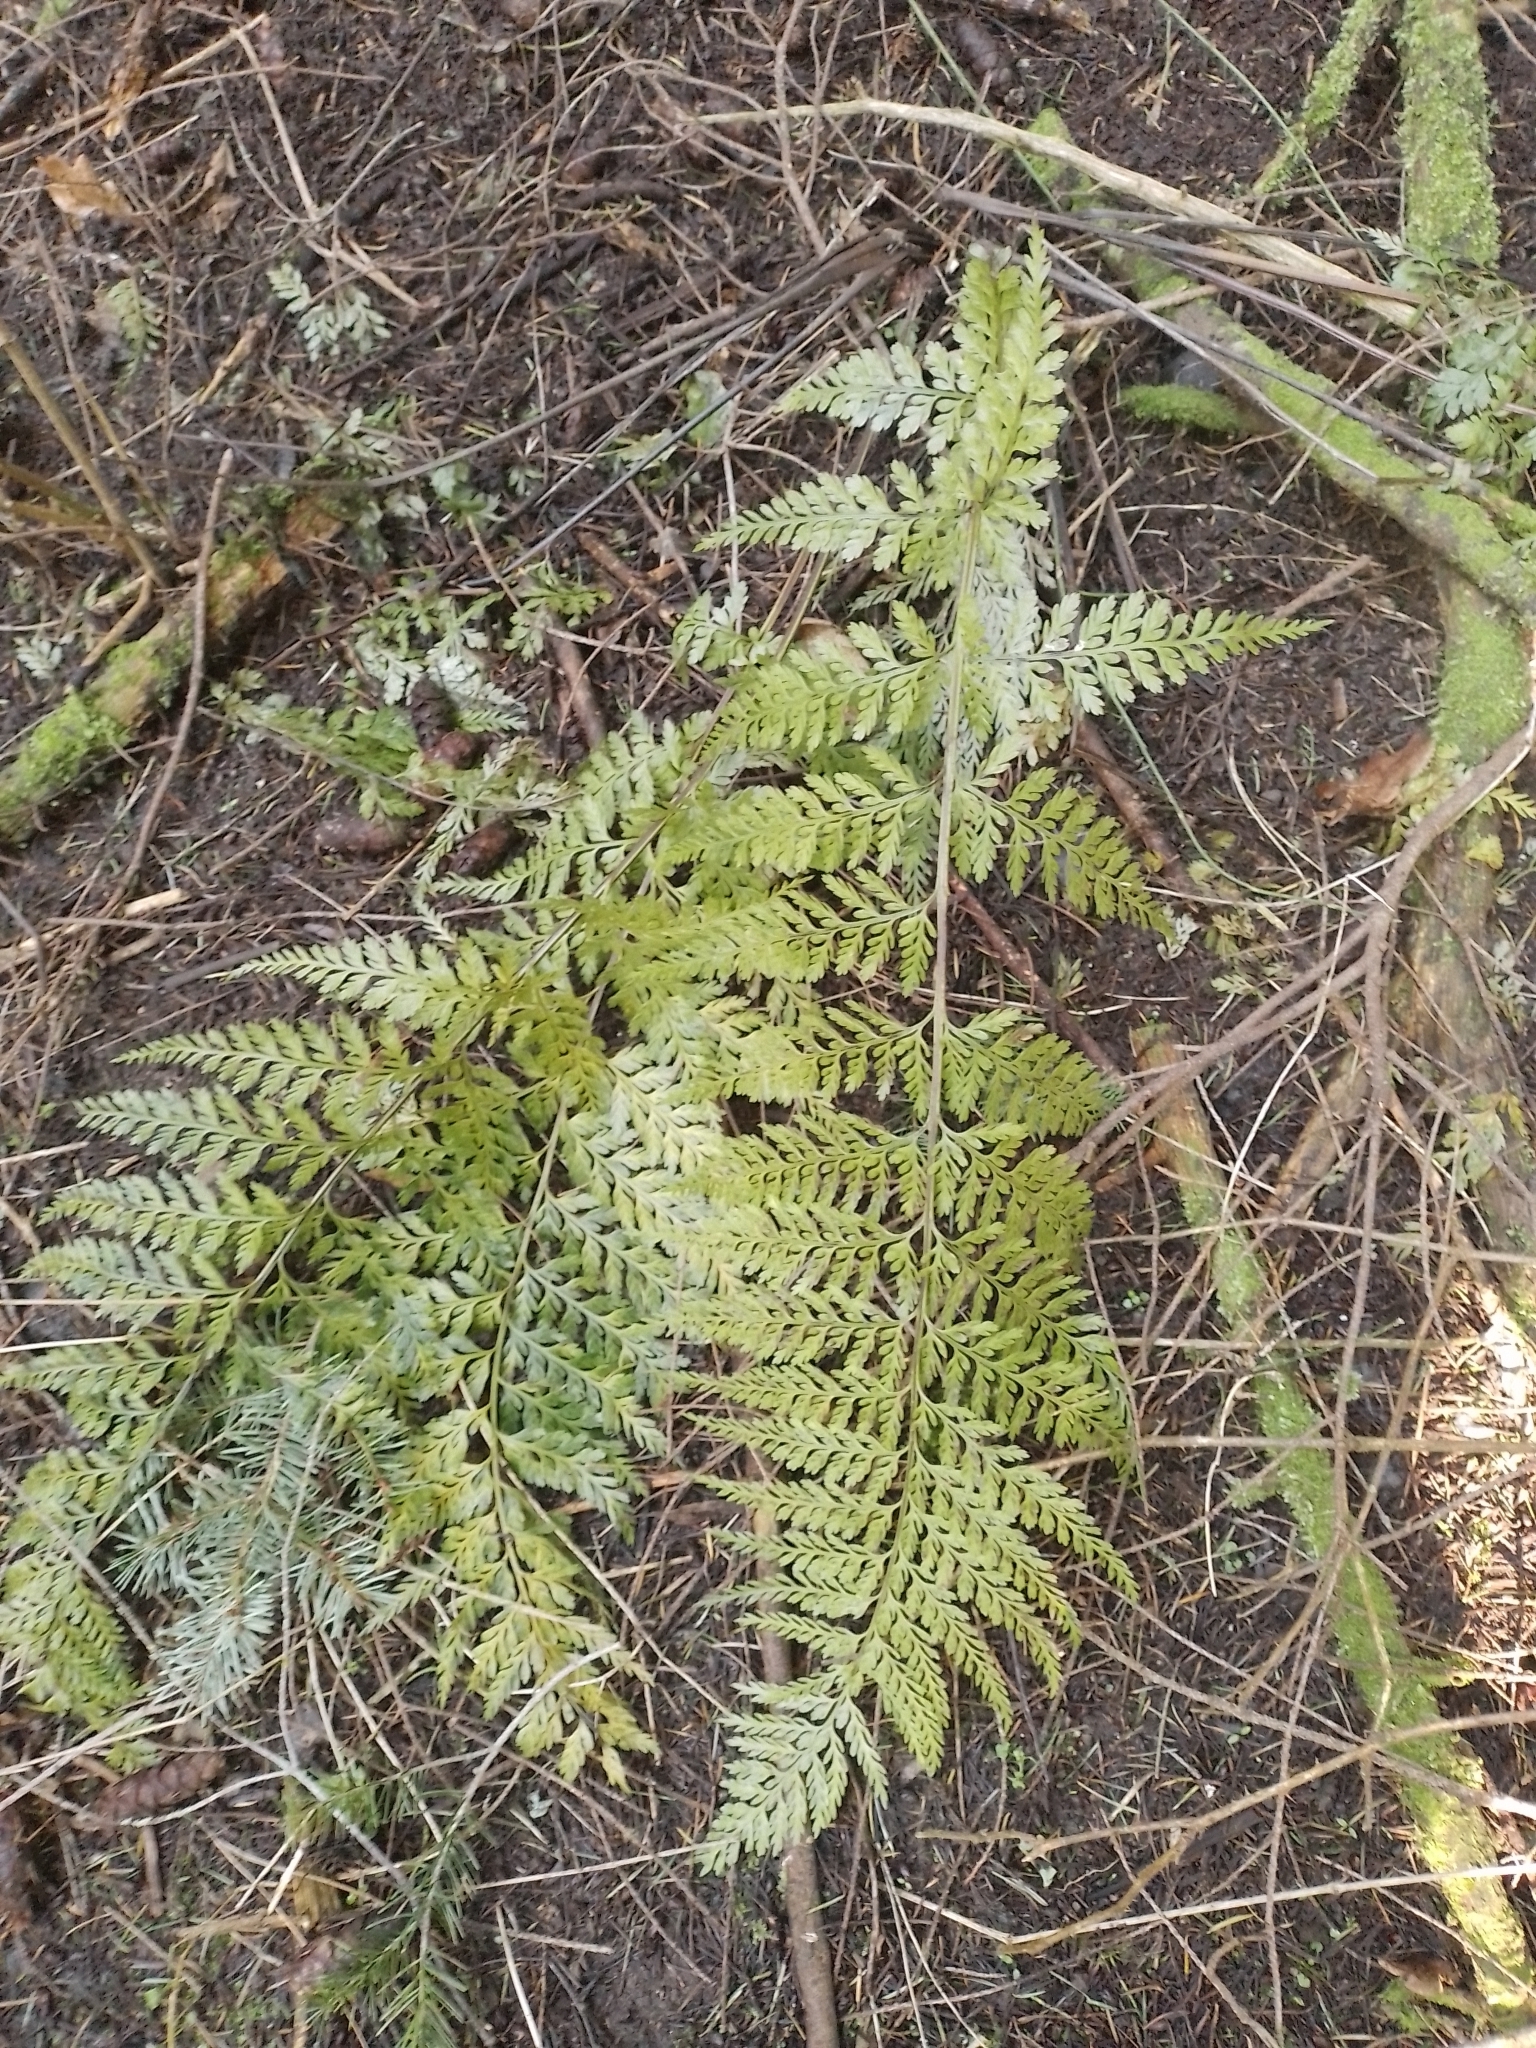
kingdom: Plantae
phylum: Tracheophyta
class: Polypodiopsida
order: Polypodiales
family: Aspleniaceae
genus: Asplenium
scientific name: Asplenium
